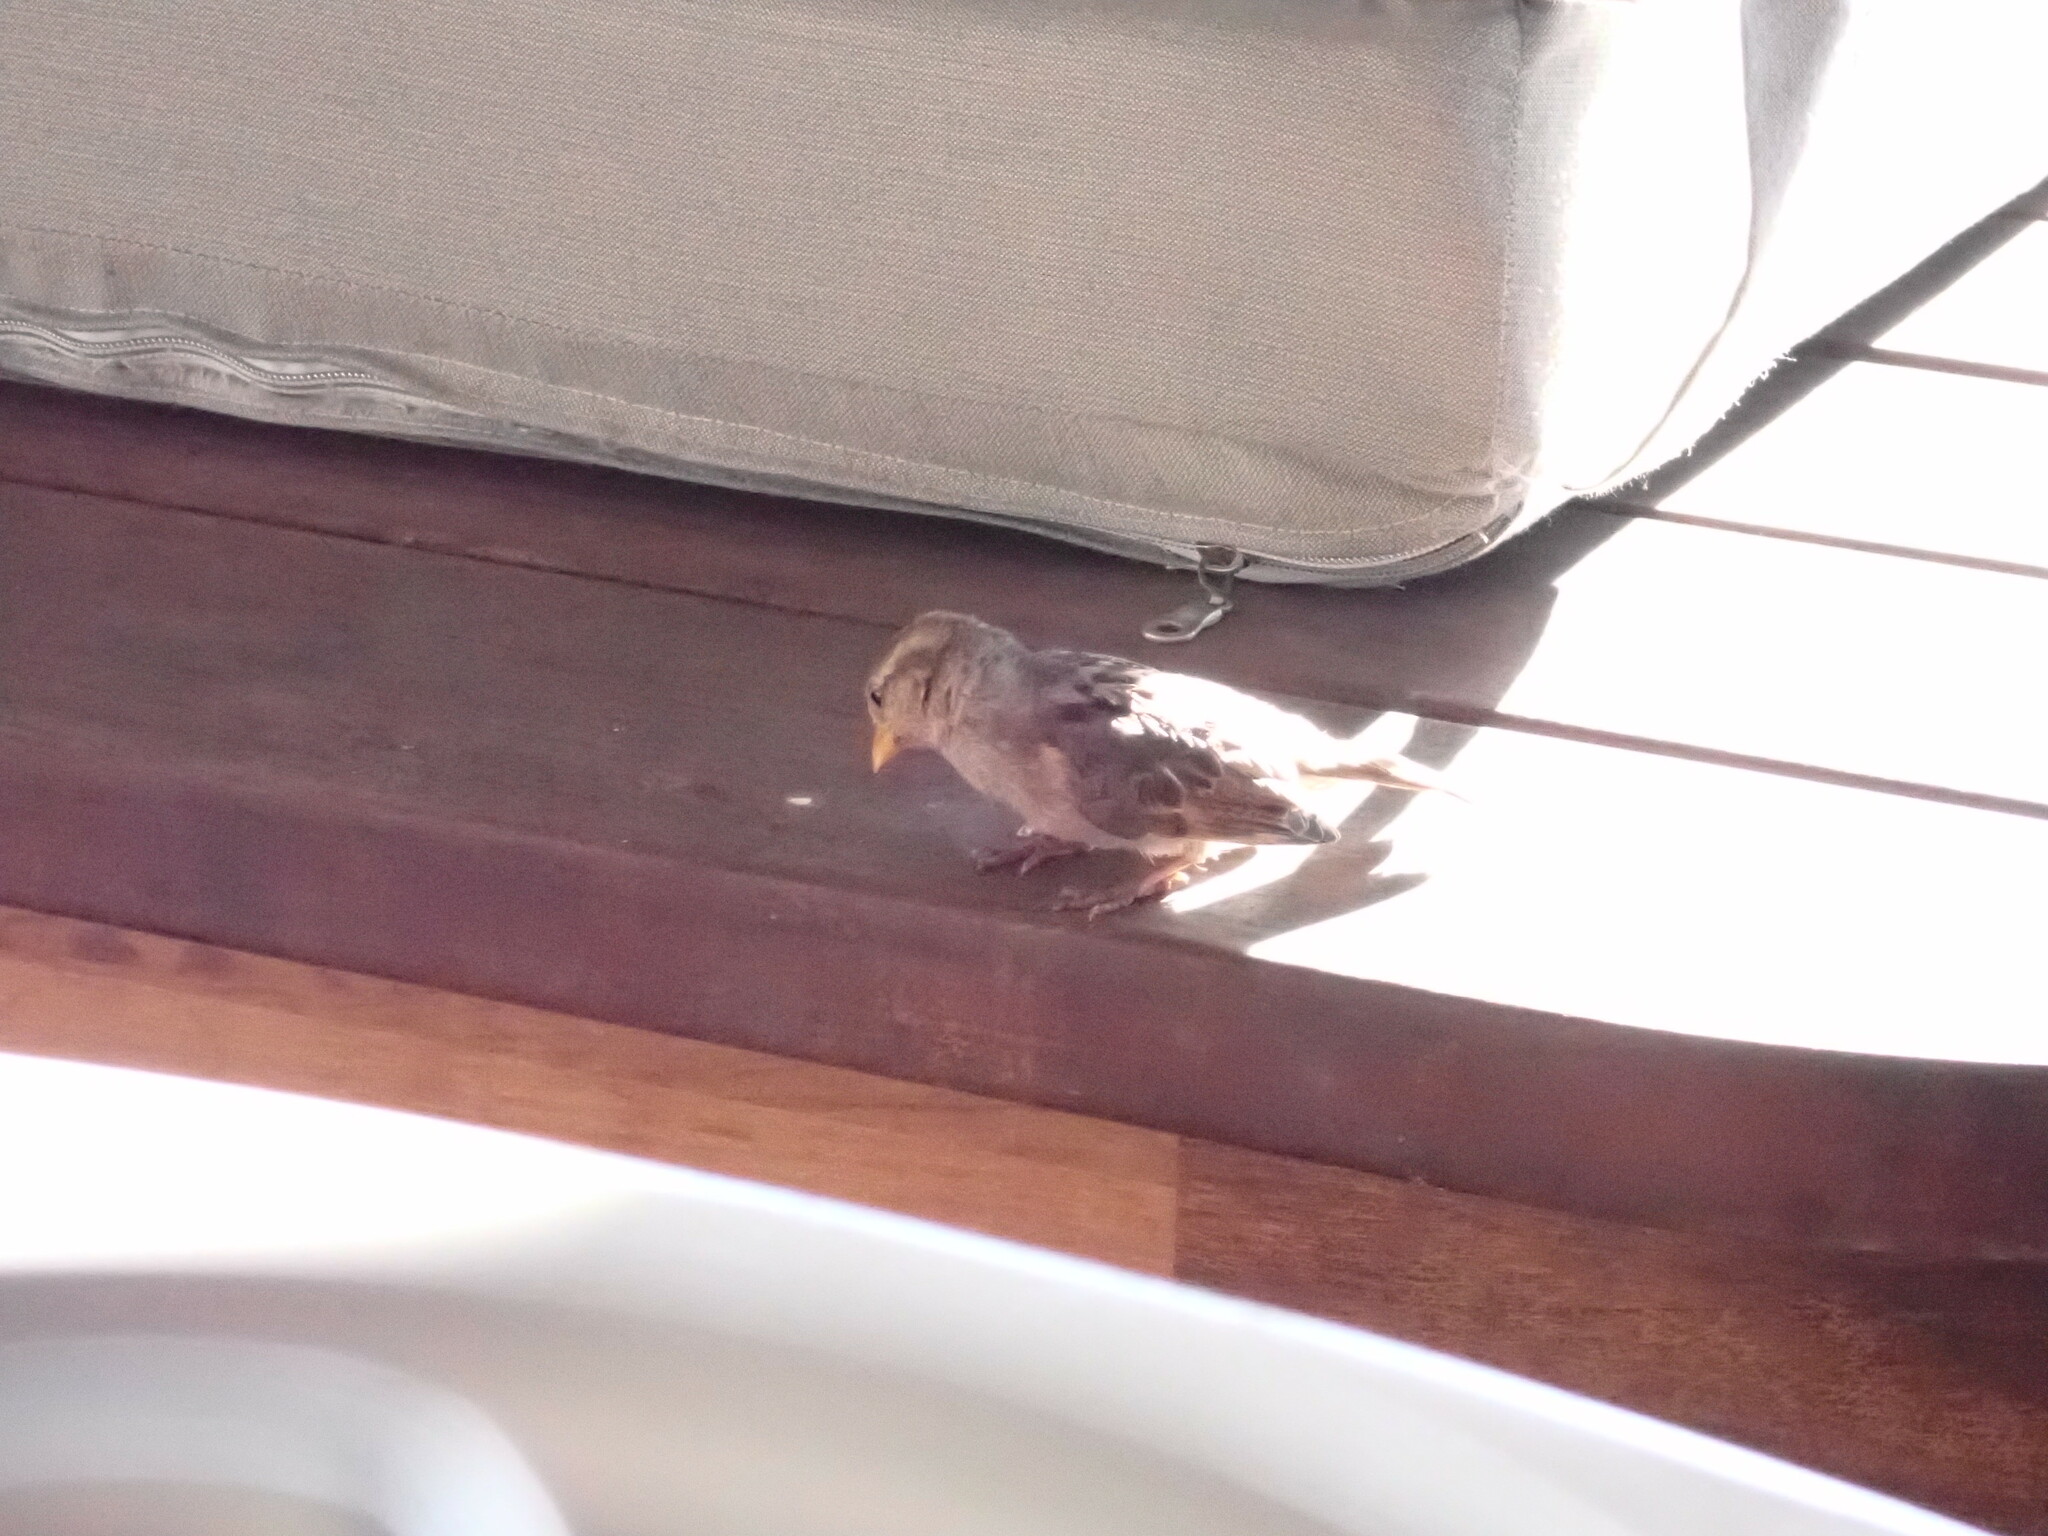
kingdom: Animalia
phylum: Chordata
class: Aves
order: Passeriformes
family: Passeridae
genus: Passer
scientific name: Passer domesticus
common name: House sparrow
